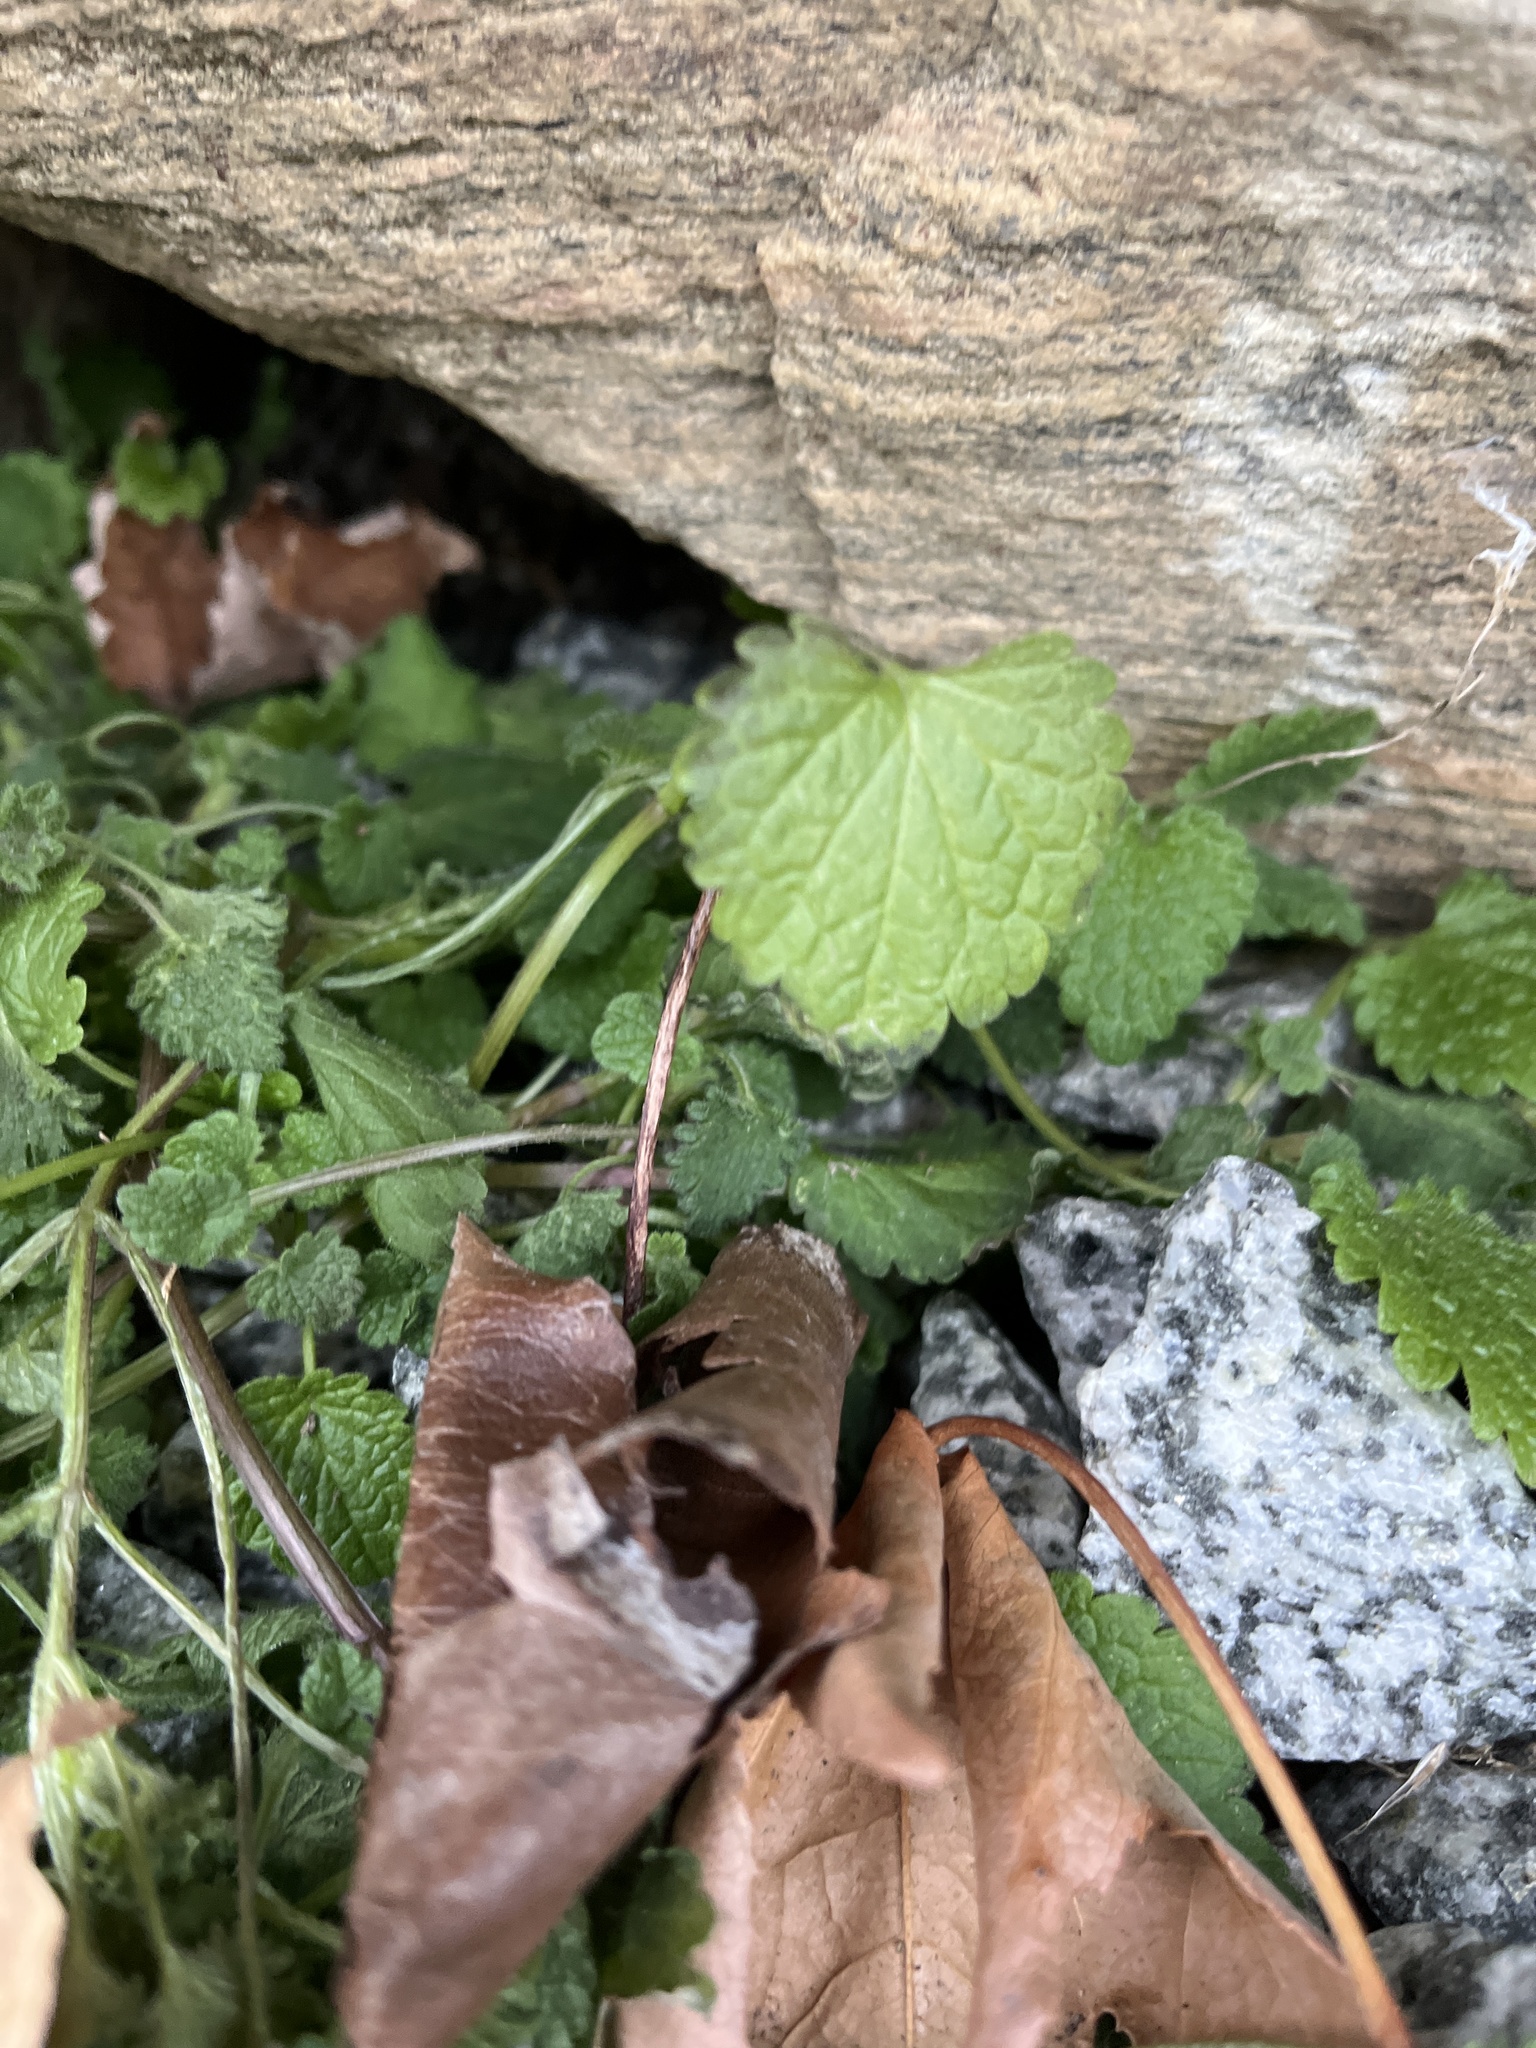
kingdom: Plantae
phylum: Tracheophyta
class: Magnoliopsida
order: Lamiales
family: Lamiaceae
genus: Lamium
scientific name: Lamium purpureum
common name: Red dead-nettle
